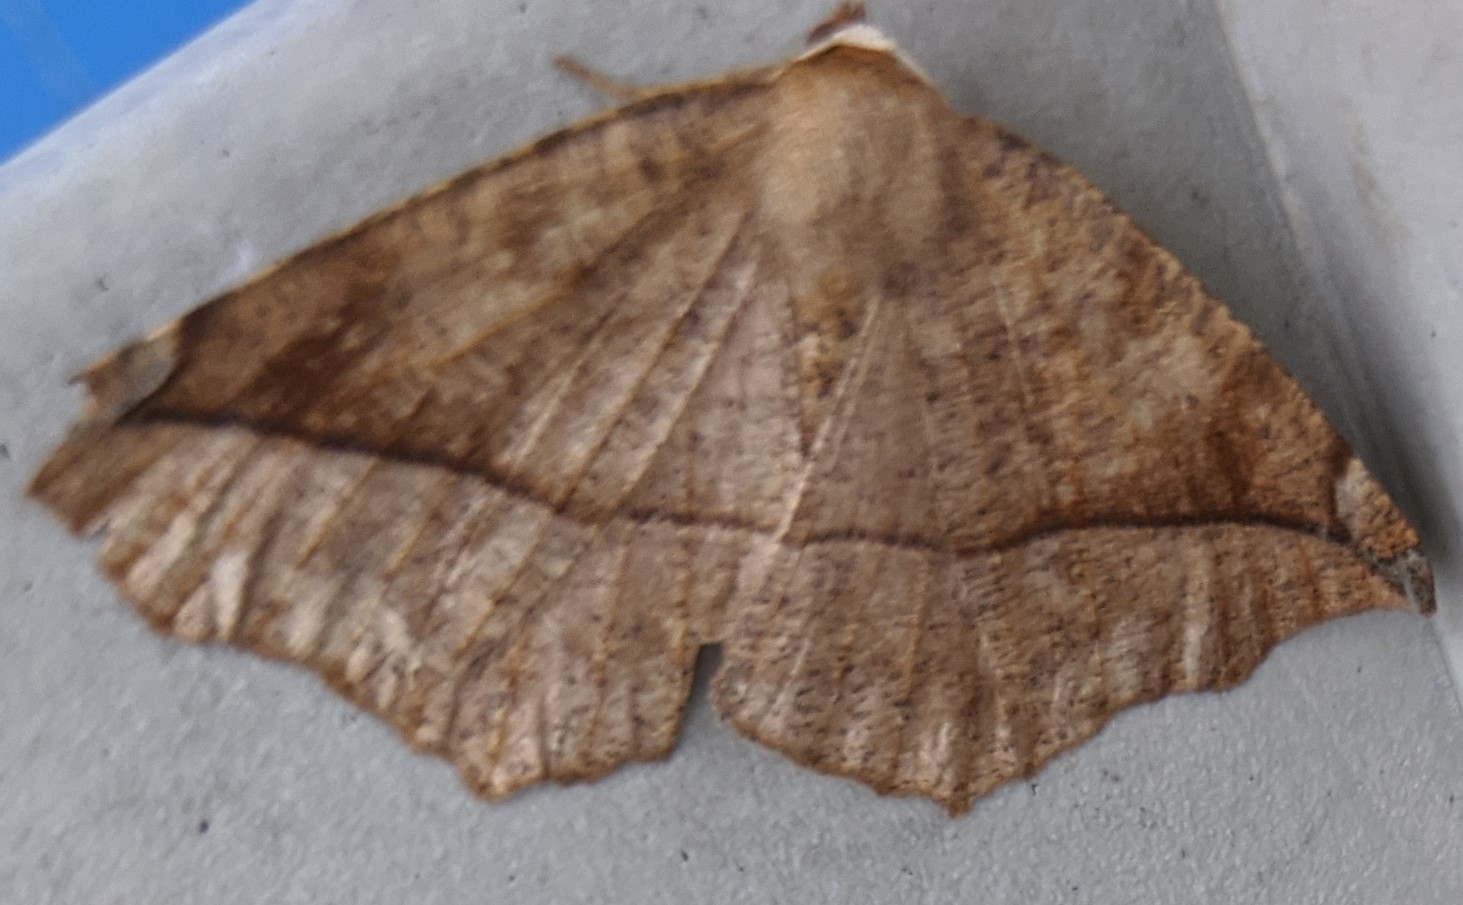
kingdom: Animalia
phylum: Arthropoda
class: Insecta
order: Lepidoptera
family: Geometridae
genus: Eutrapela
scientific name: Eutrapela clemataria
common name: Curved-toothed geometer
